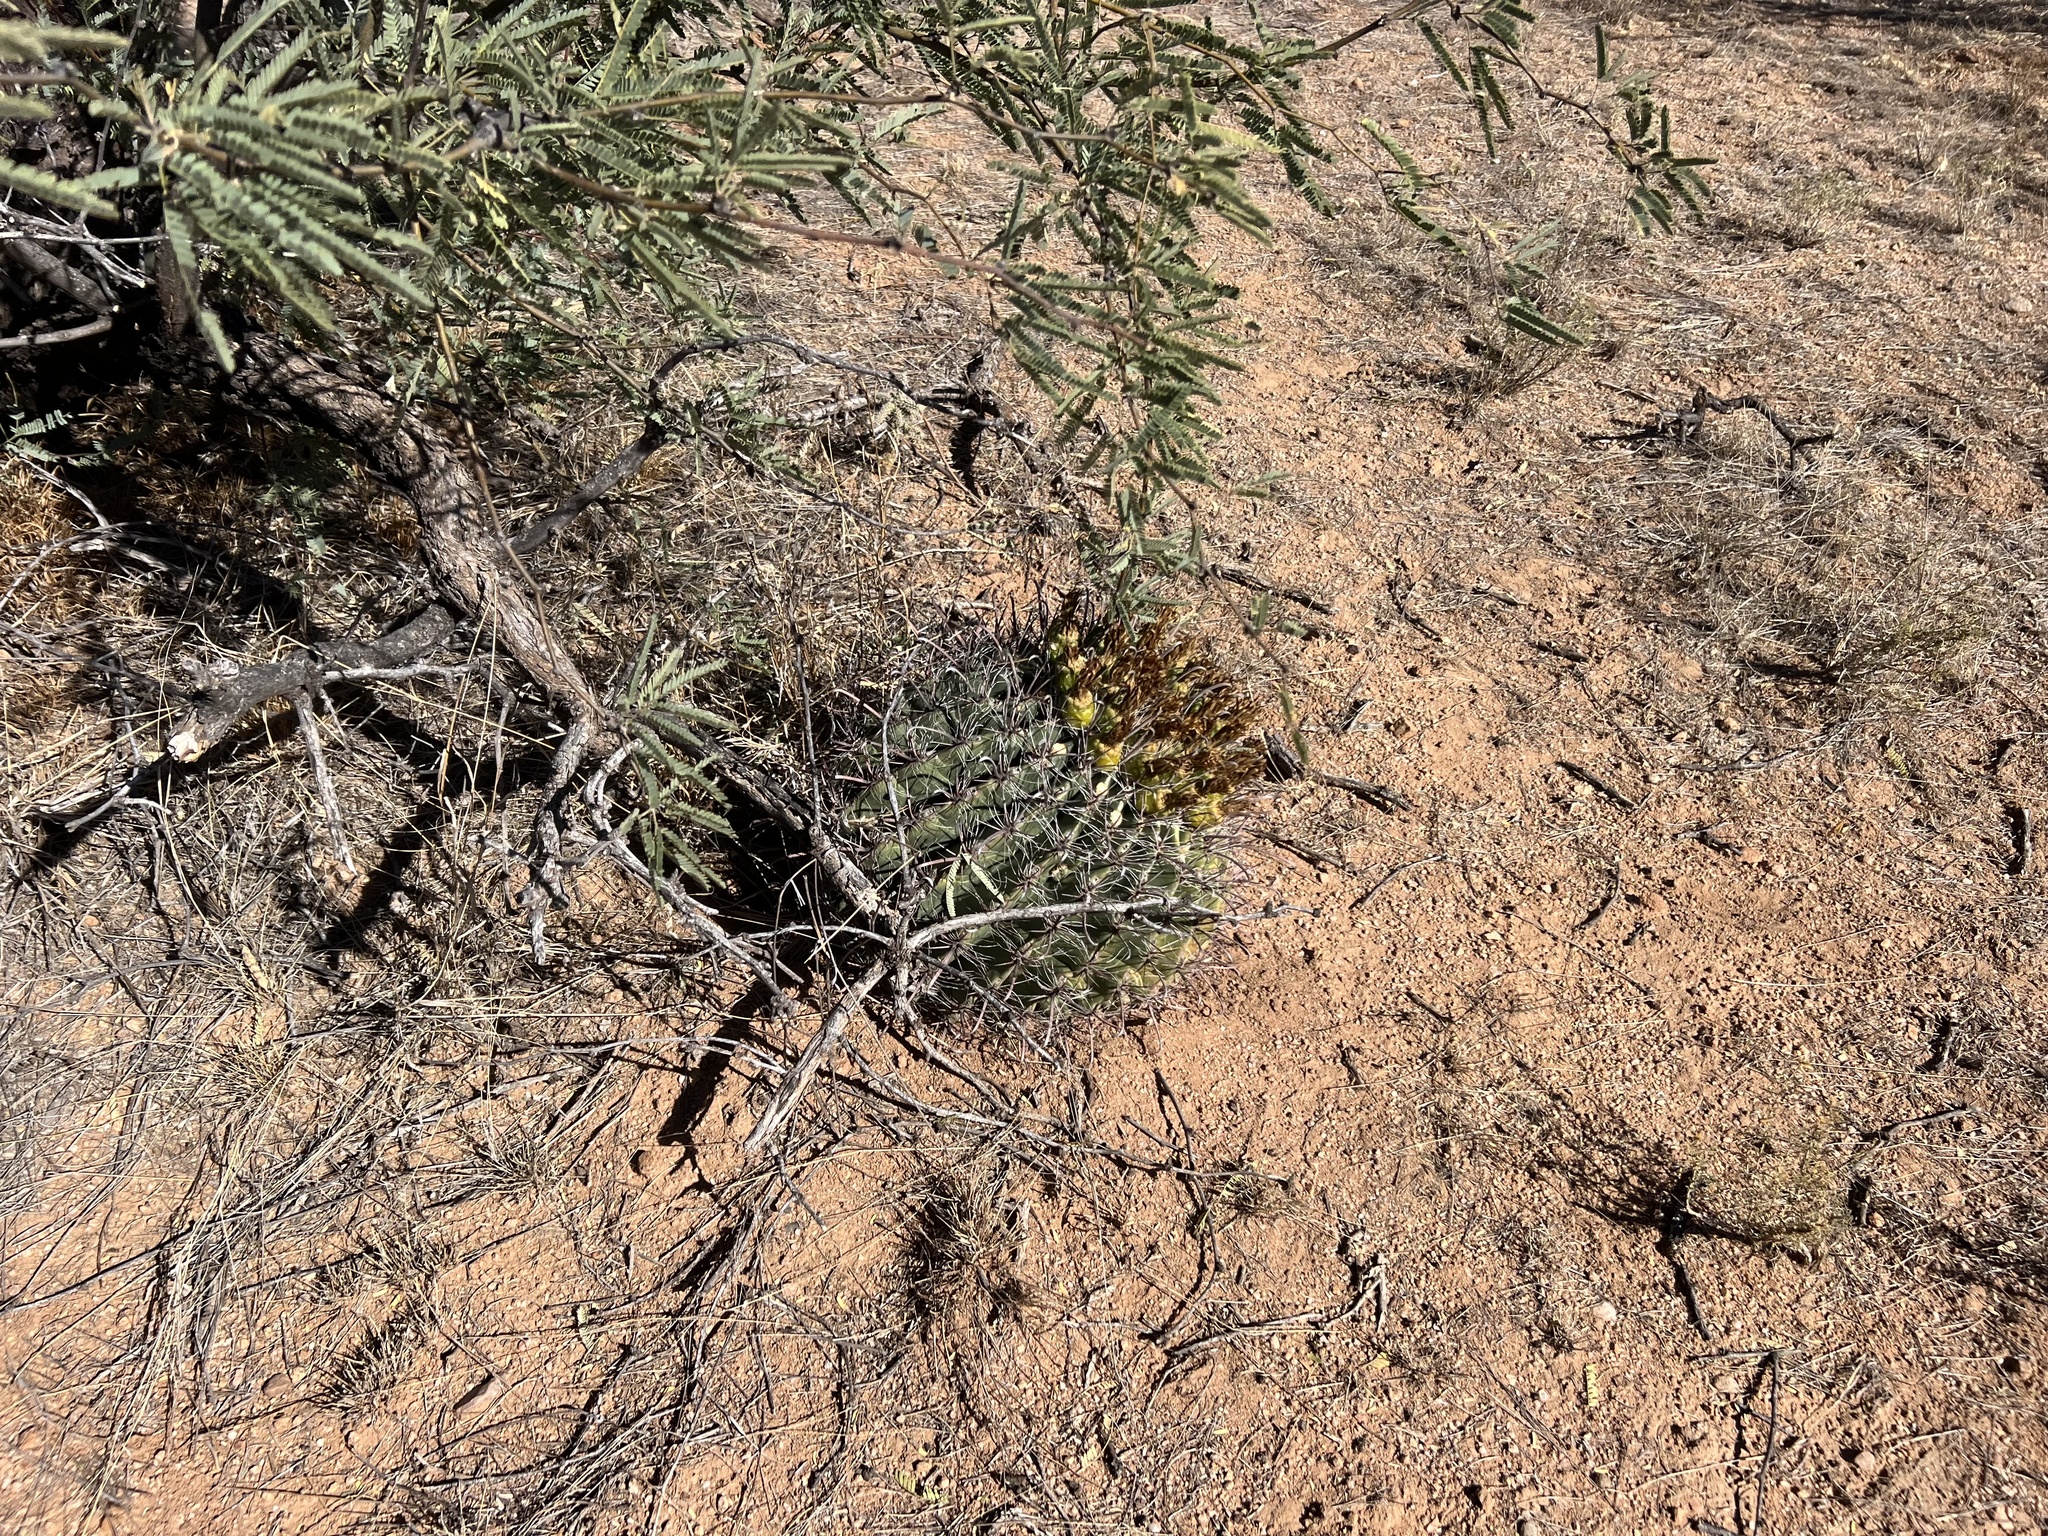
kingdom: Plantae
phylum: Tracheophyta
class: Magnoliopsida
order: Caryophyllales
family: Cactaceae
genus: Ferocactus
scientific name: Ferocactus wislizeni
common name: Candy barrel cactus
